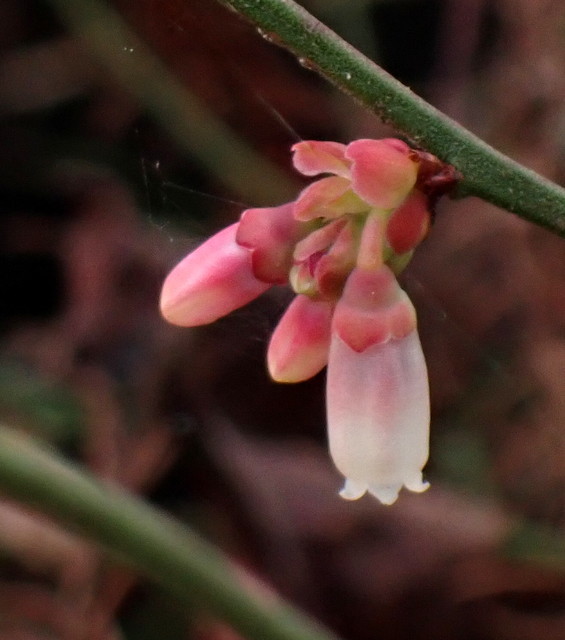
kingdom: Plantae
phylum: Tracheophyta
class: Magnoliopsida
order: Ericales
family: Ericaceae
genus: Vaccinium
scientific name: Vaccinium corymbosum
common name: Blueberry
